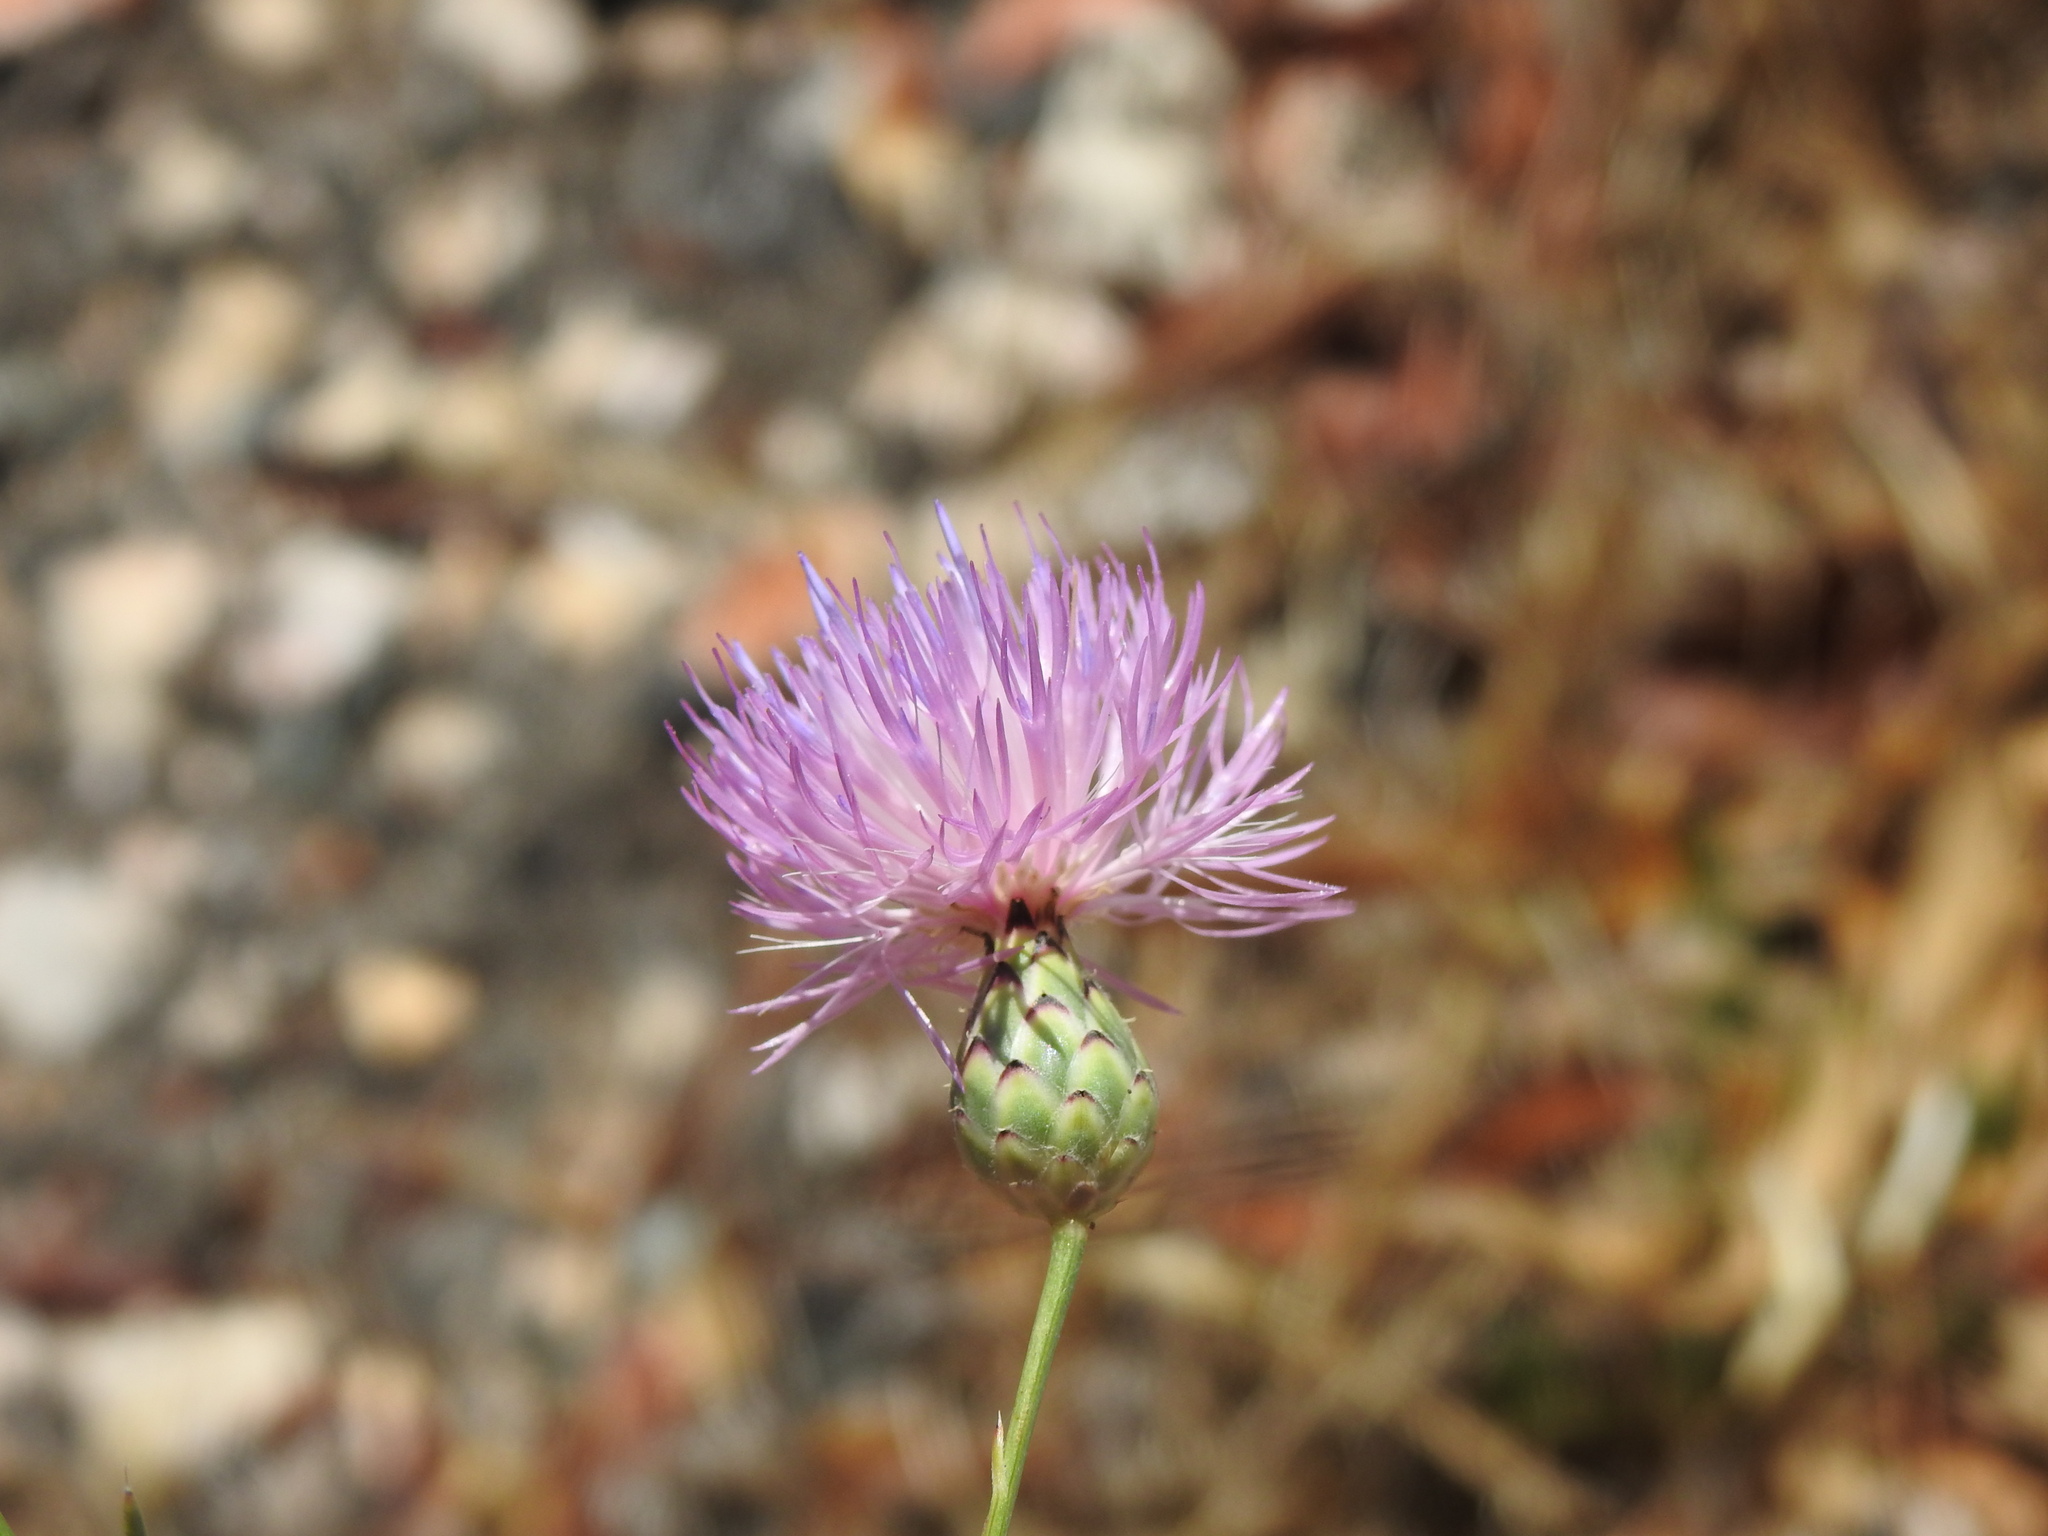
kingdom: Plantae
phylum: Tracheophyta
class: Magnoliopsida
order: Asterales
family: Asteraceae
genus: Mantisalca
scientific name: Mantisalca salmantica
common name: Dagger flower
